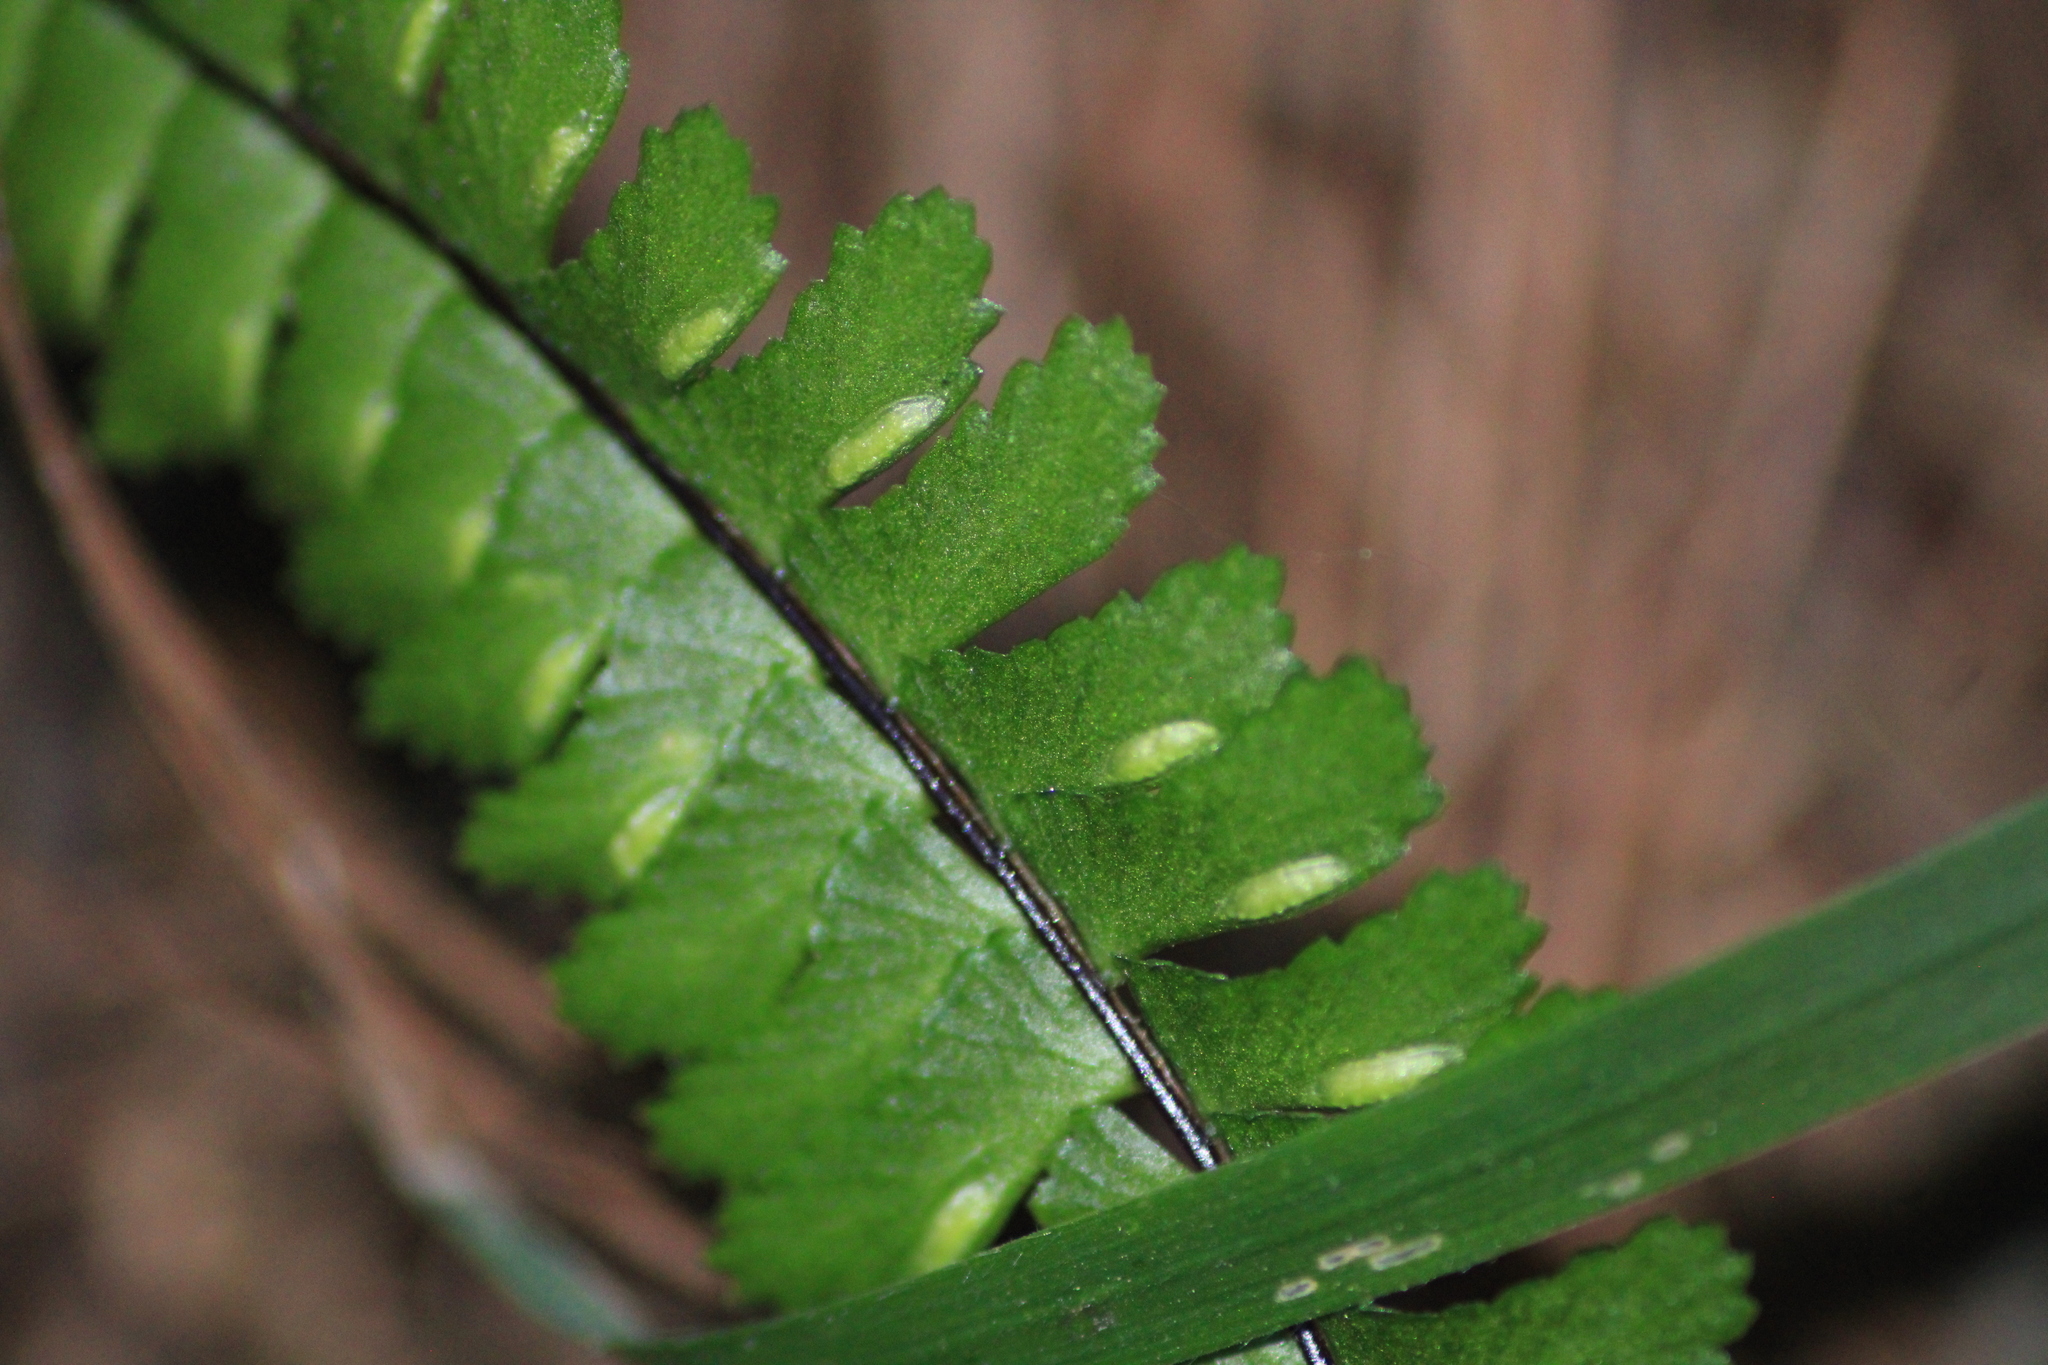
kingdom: Plantae
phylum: Tracheophyta
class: Polypodiopsida
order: Polypodiales
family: Aspleniaceae
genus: Asplenium
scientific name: Asplenium monanthes
